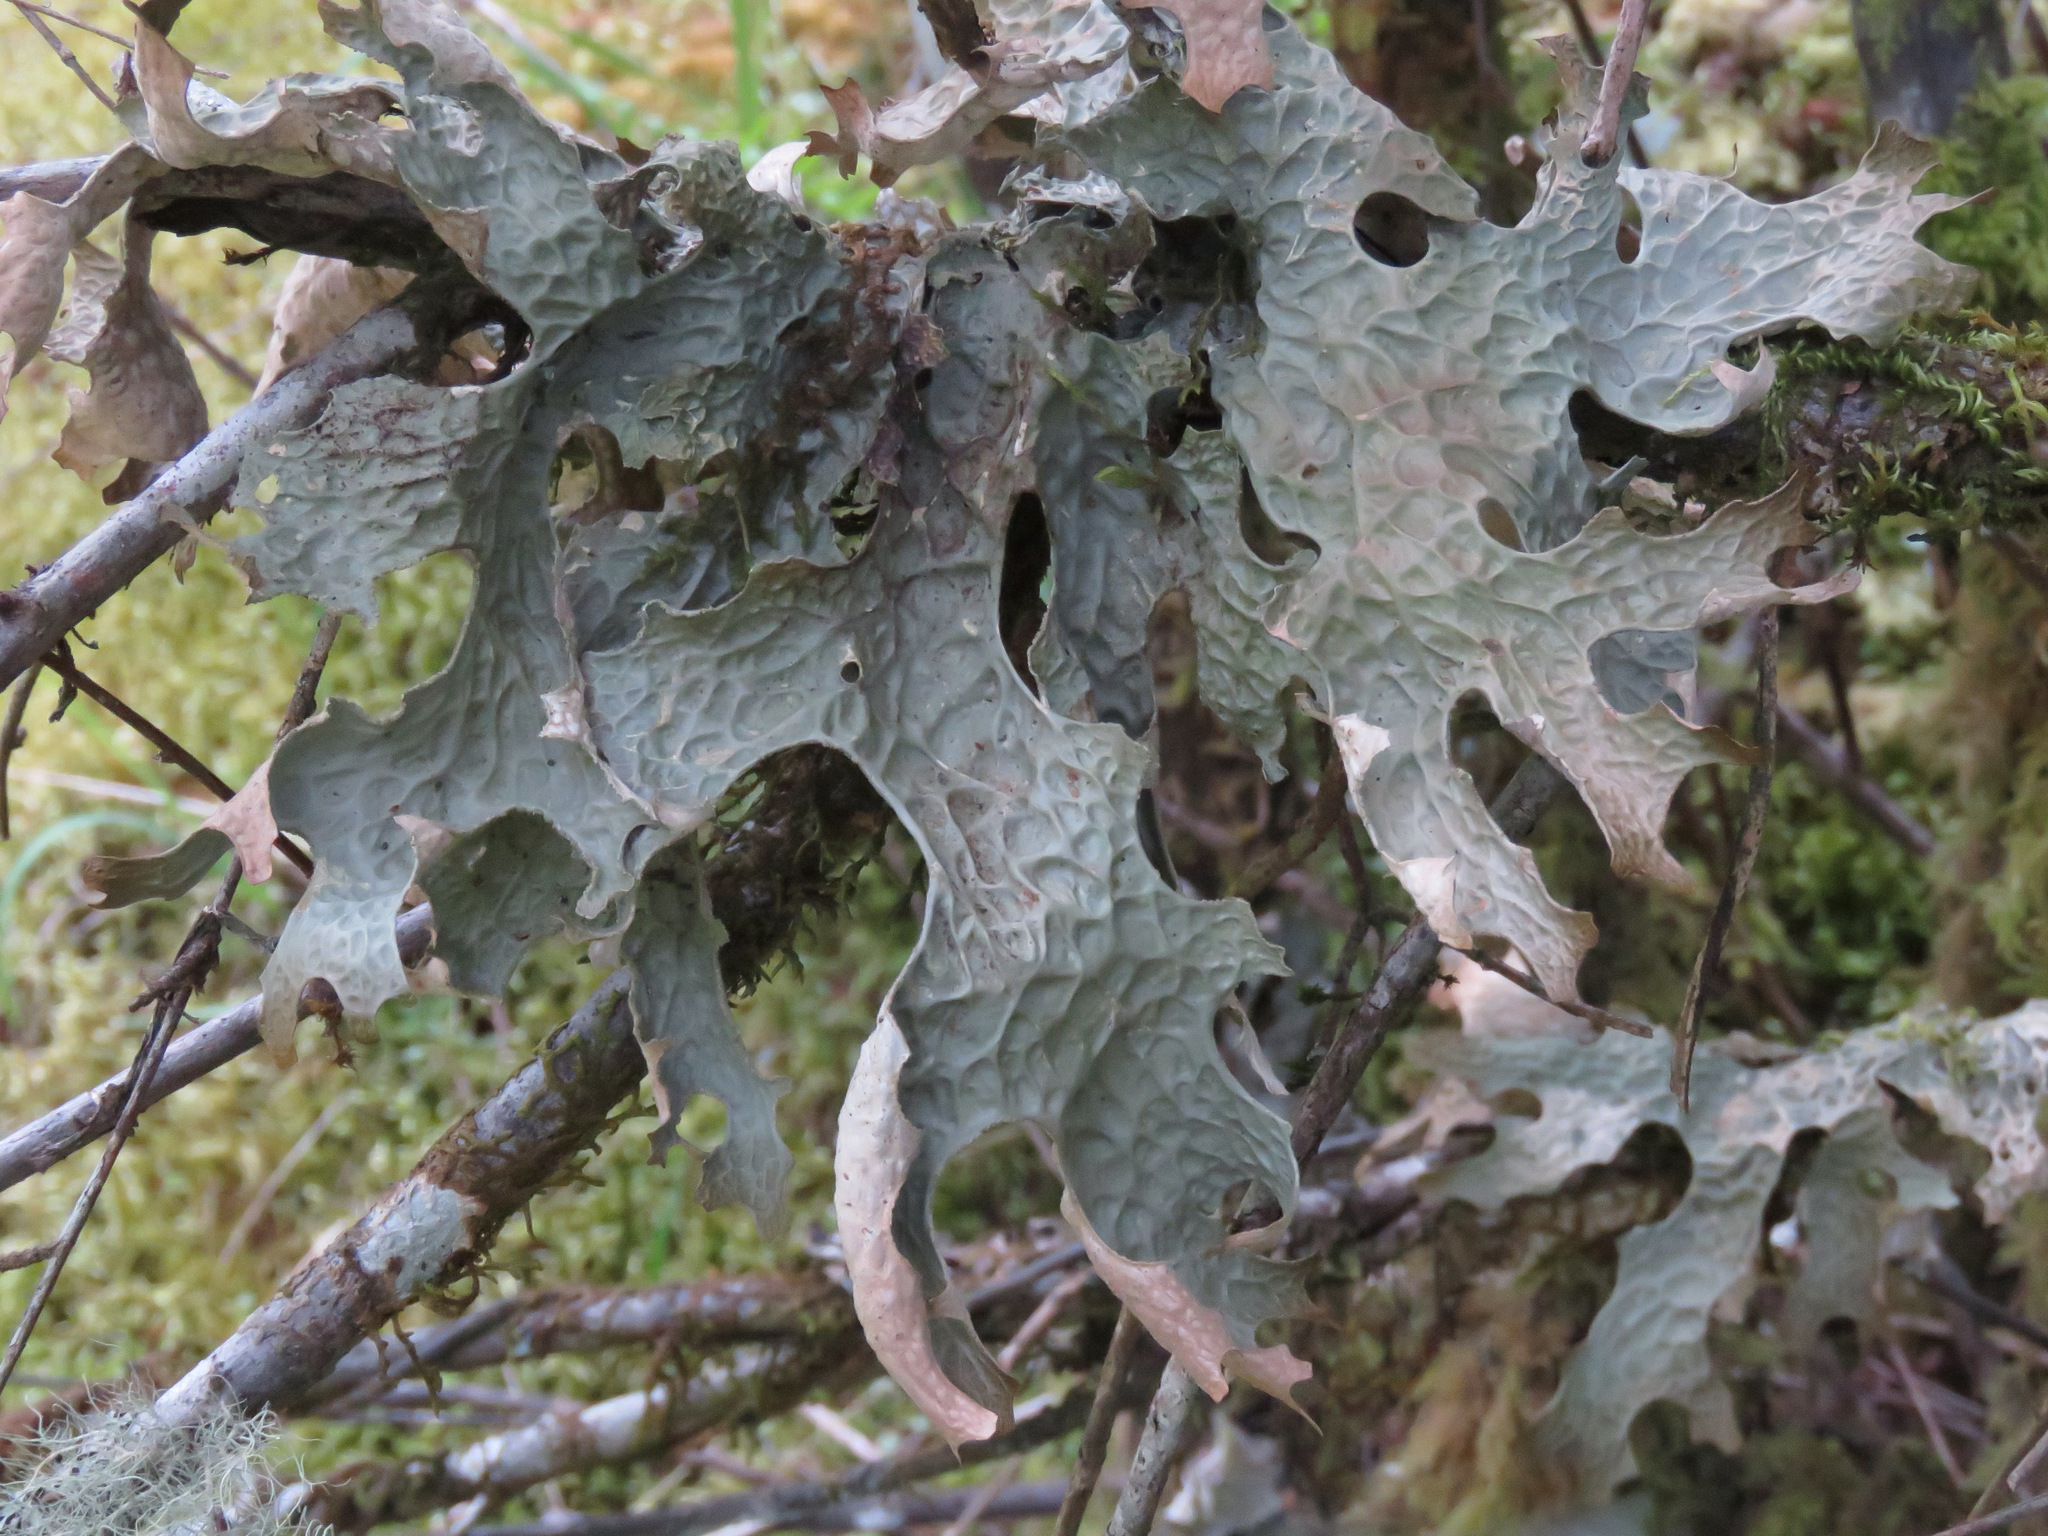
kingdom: Fungi
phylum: Ascomycota
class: Lecanoromycetes
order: Peltigerales
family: Lobariaceae
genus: Lobaria
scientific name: Lobaria pulmonaria
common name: Lungwort
